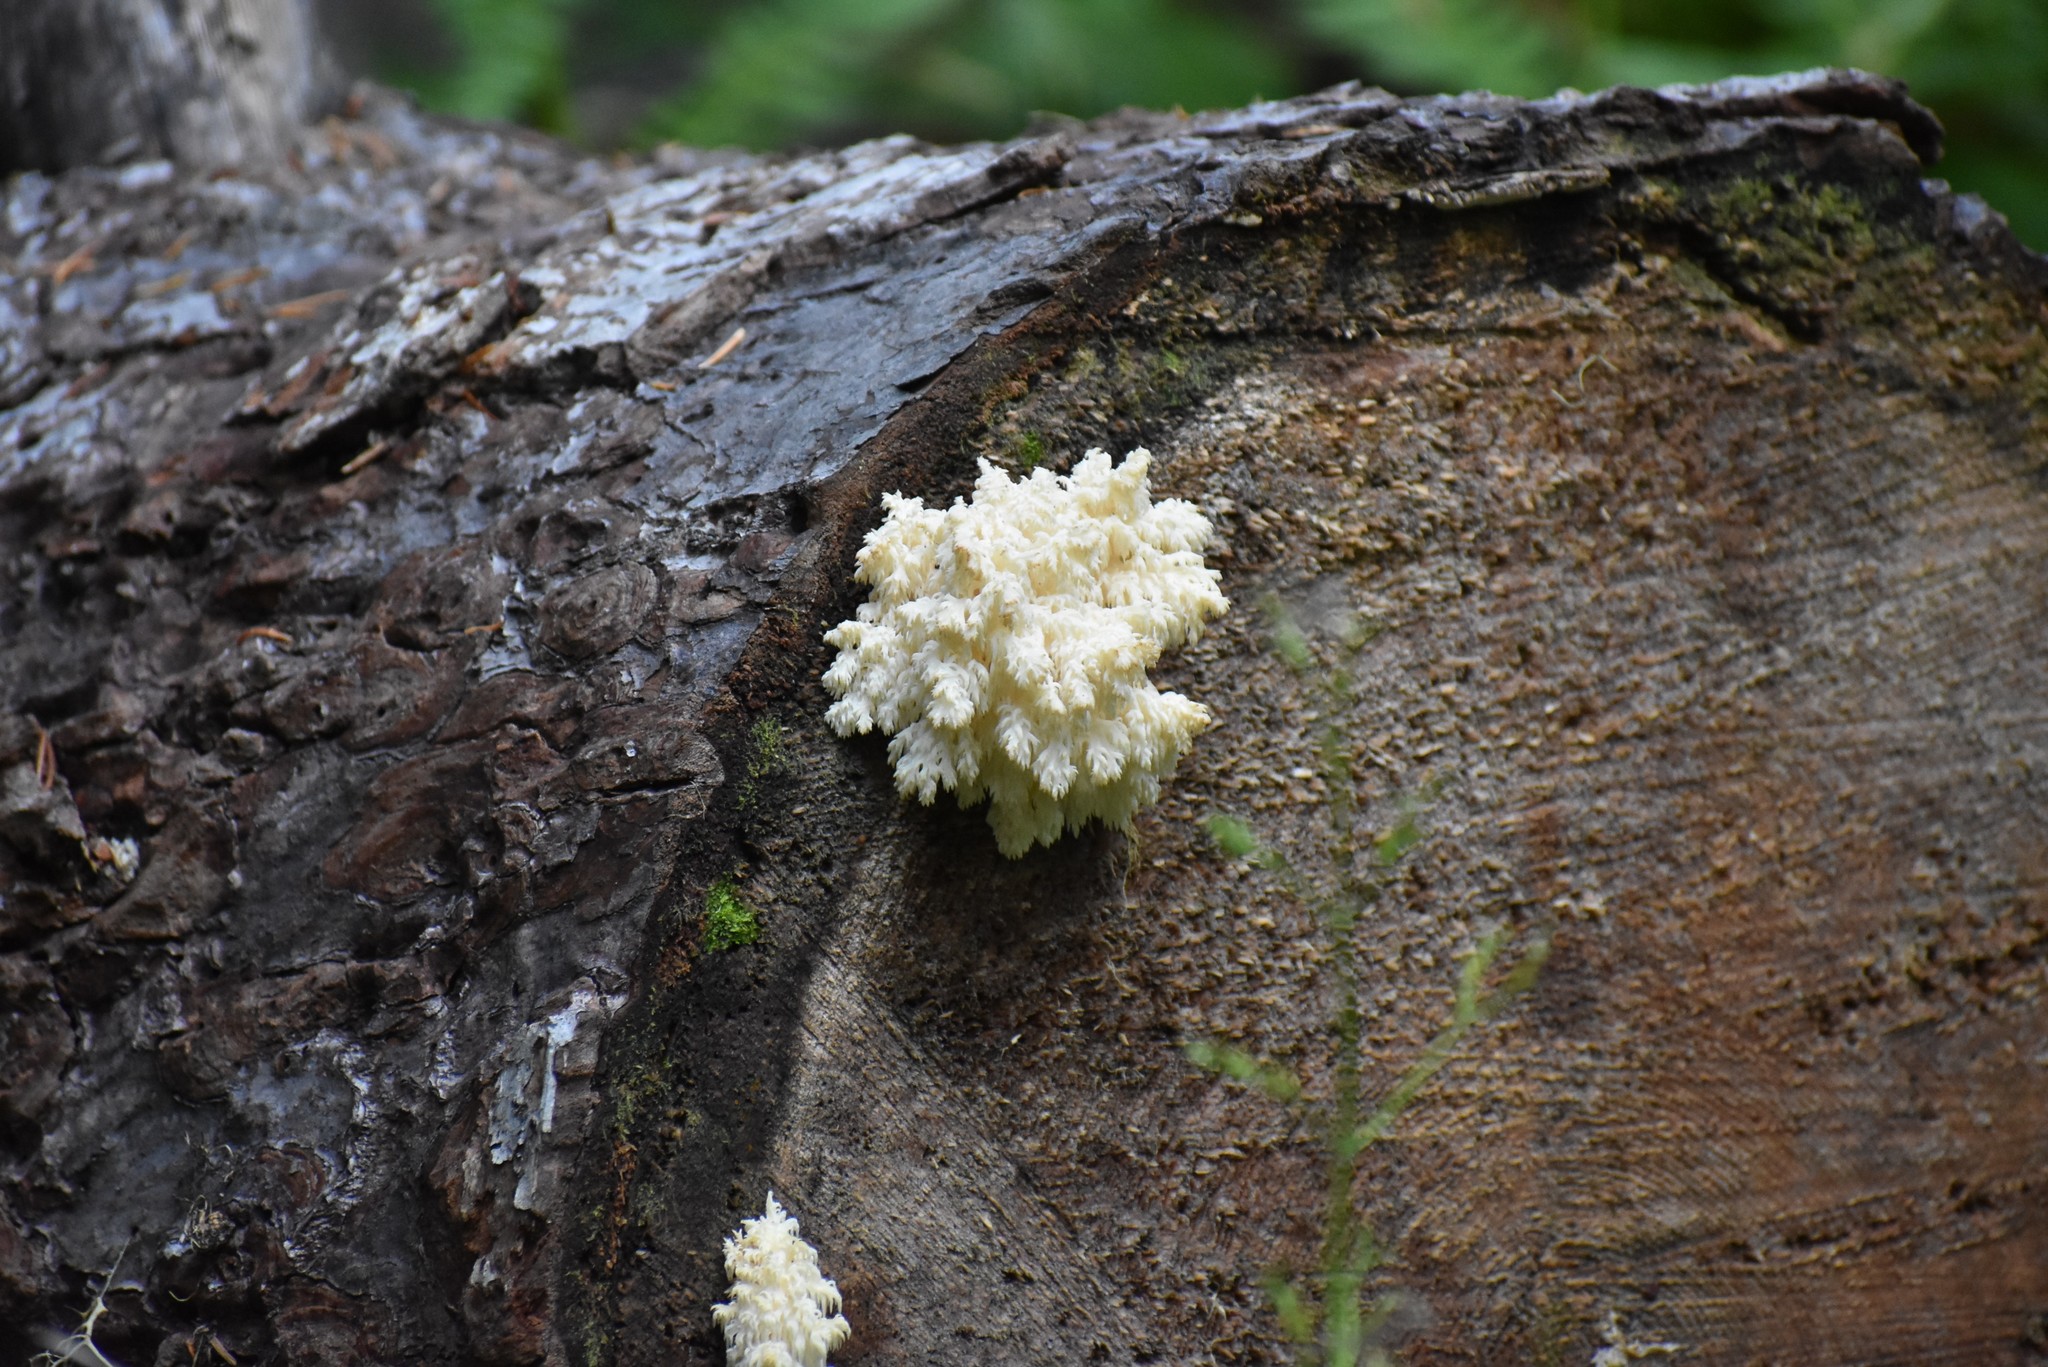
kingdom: Fungi
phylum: Basidiomycota
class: Agaricomycetes
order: Russulales
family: Hericiaceae
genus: Hericium
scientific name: Hericium coralloides
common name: Coral tooth
